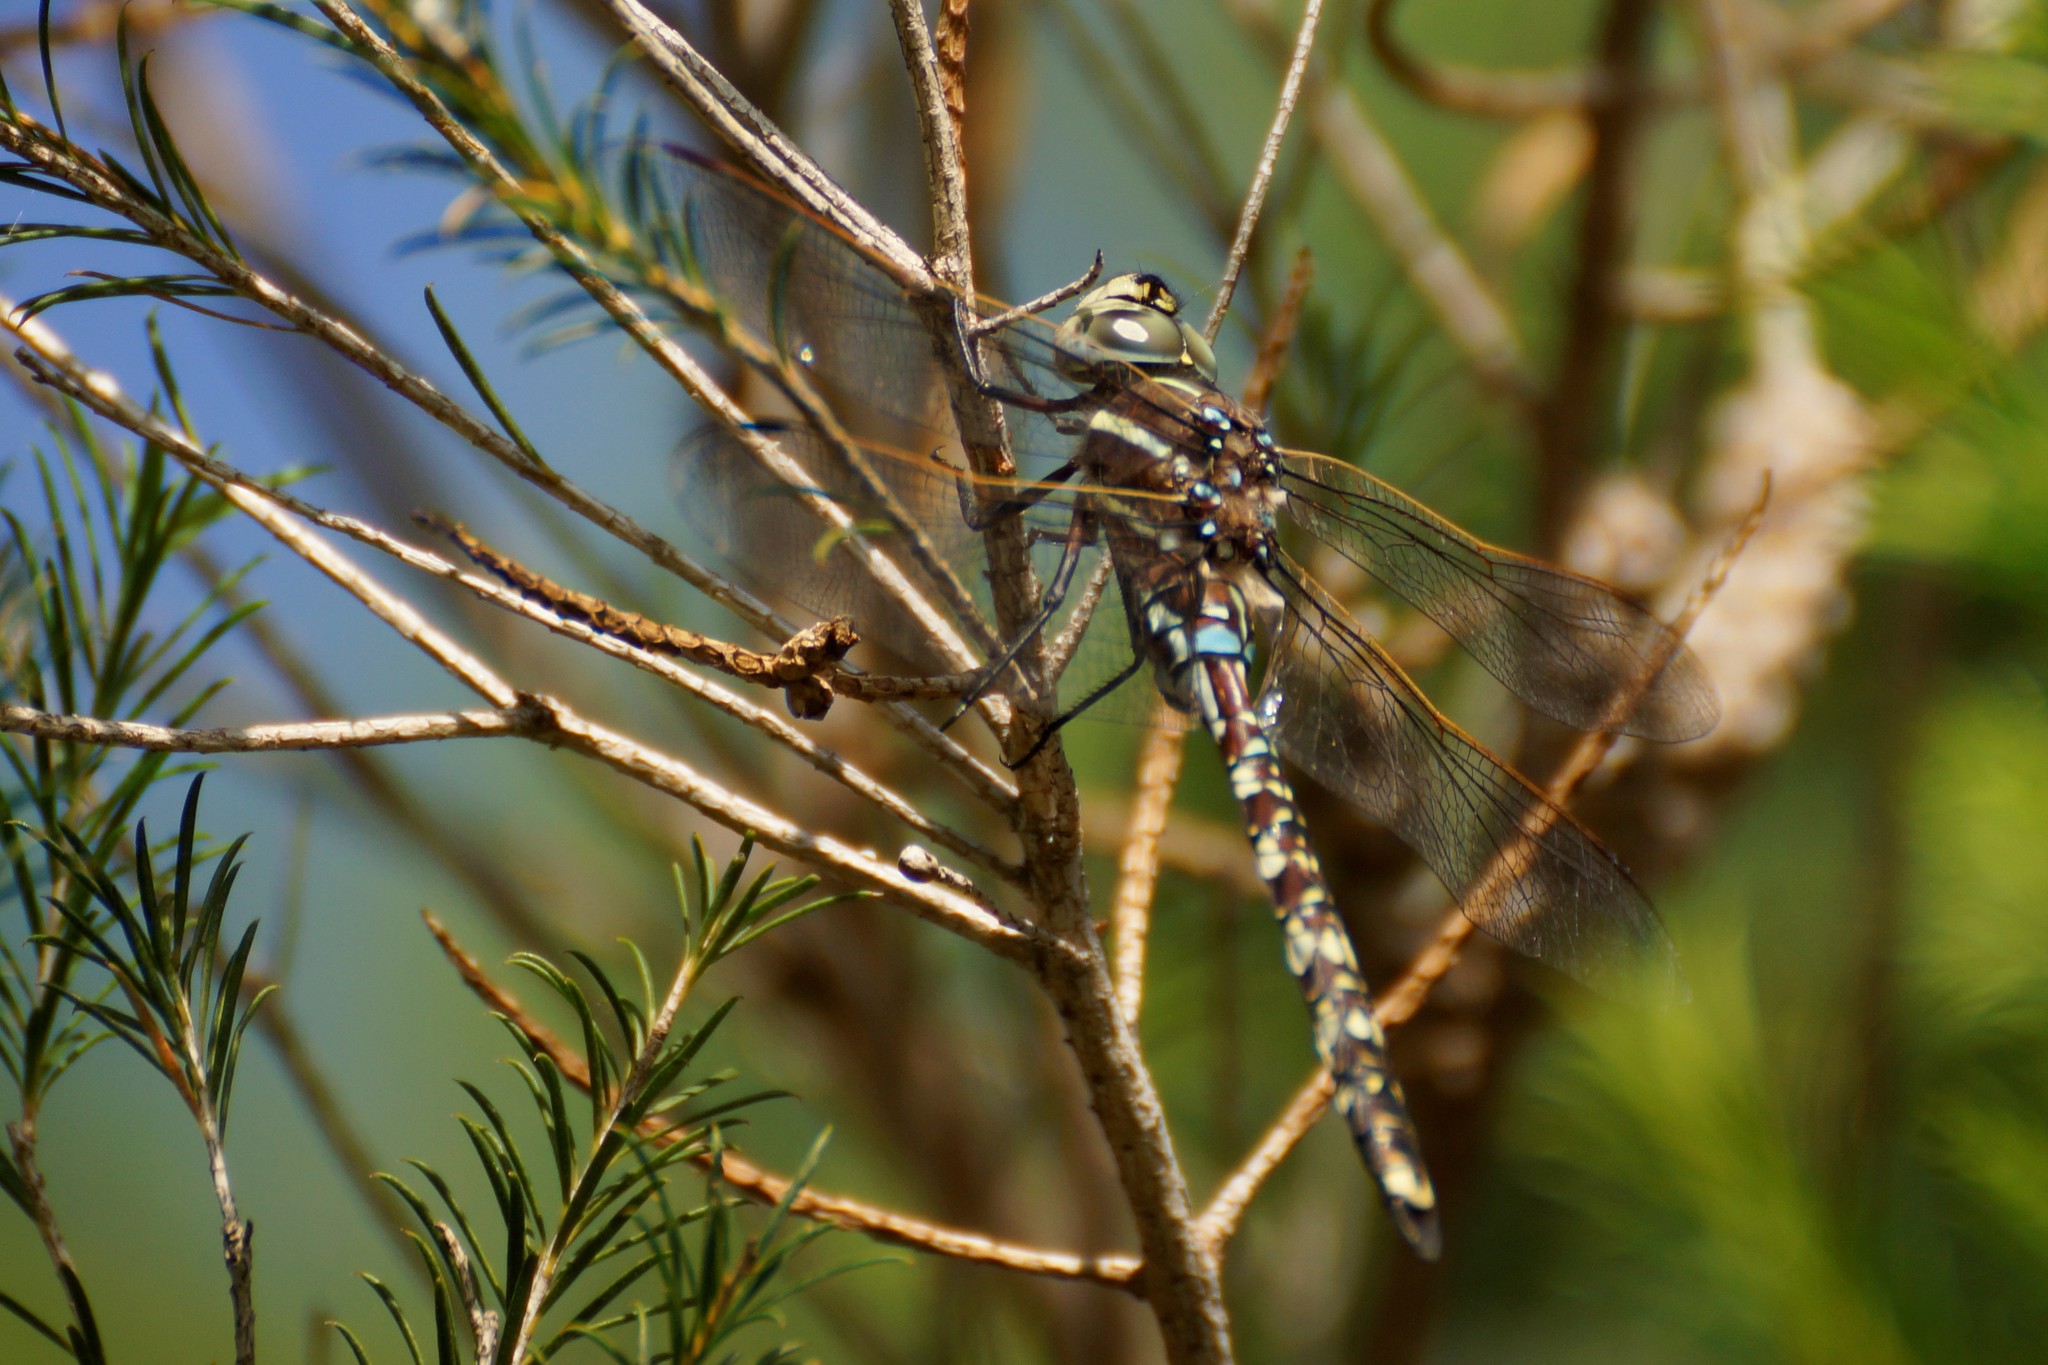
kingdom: Animalia
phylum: Arthropoda
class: Insecta
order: Odonata
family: Aeshnidae
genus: Aeshna
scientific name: Aeshna brevistyla
